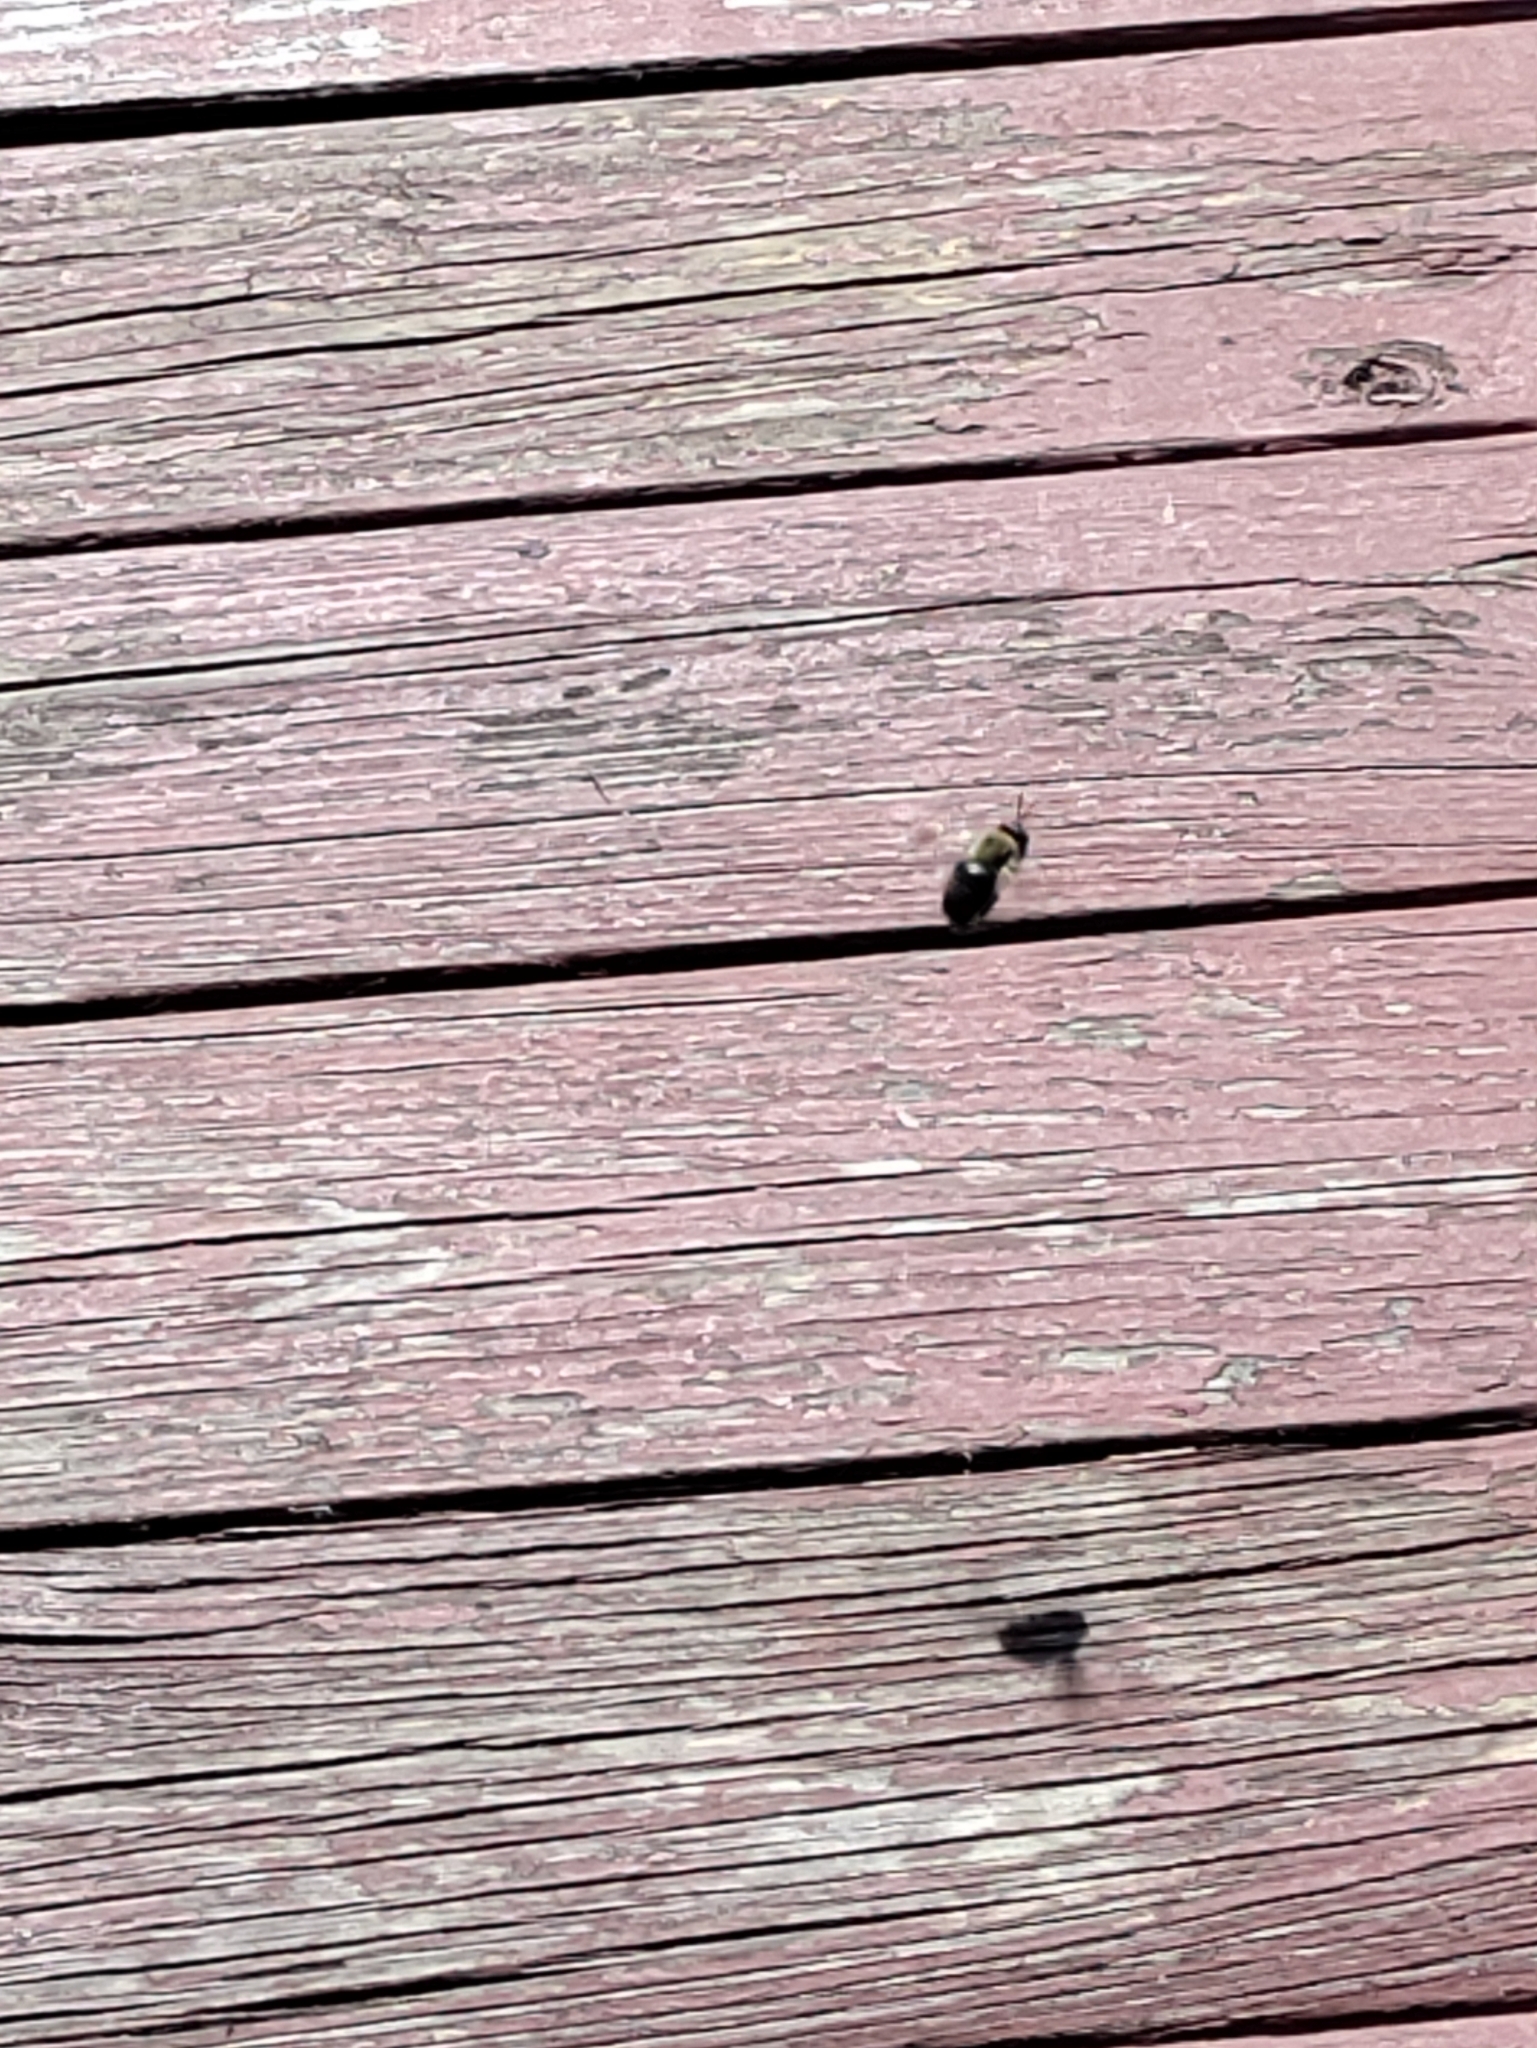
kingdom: Animalia
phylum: Arthropoda
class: Insecta
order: Hymenoptera
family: Apidae
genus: Xylocopa
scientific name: Xylocopa virginica
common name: Carpenter bee
